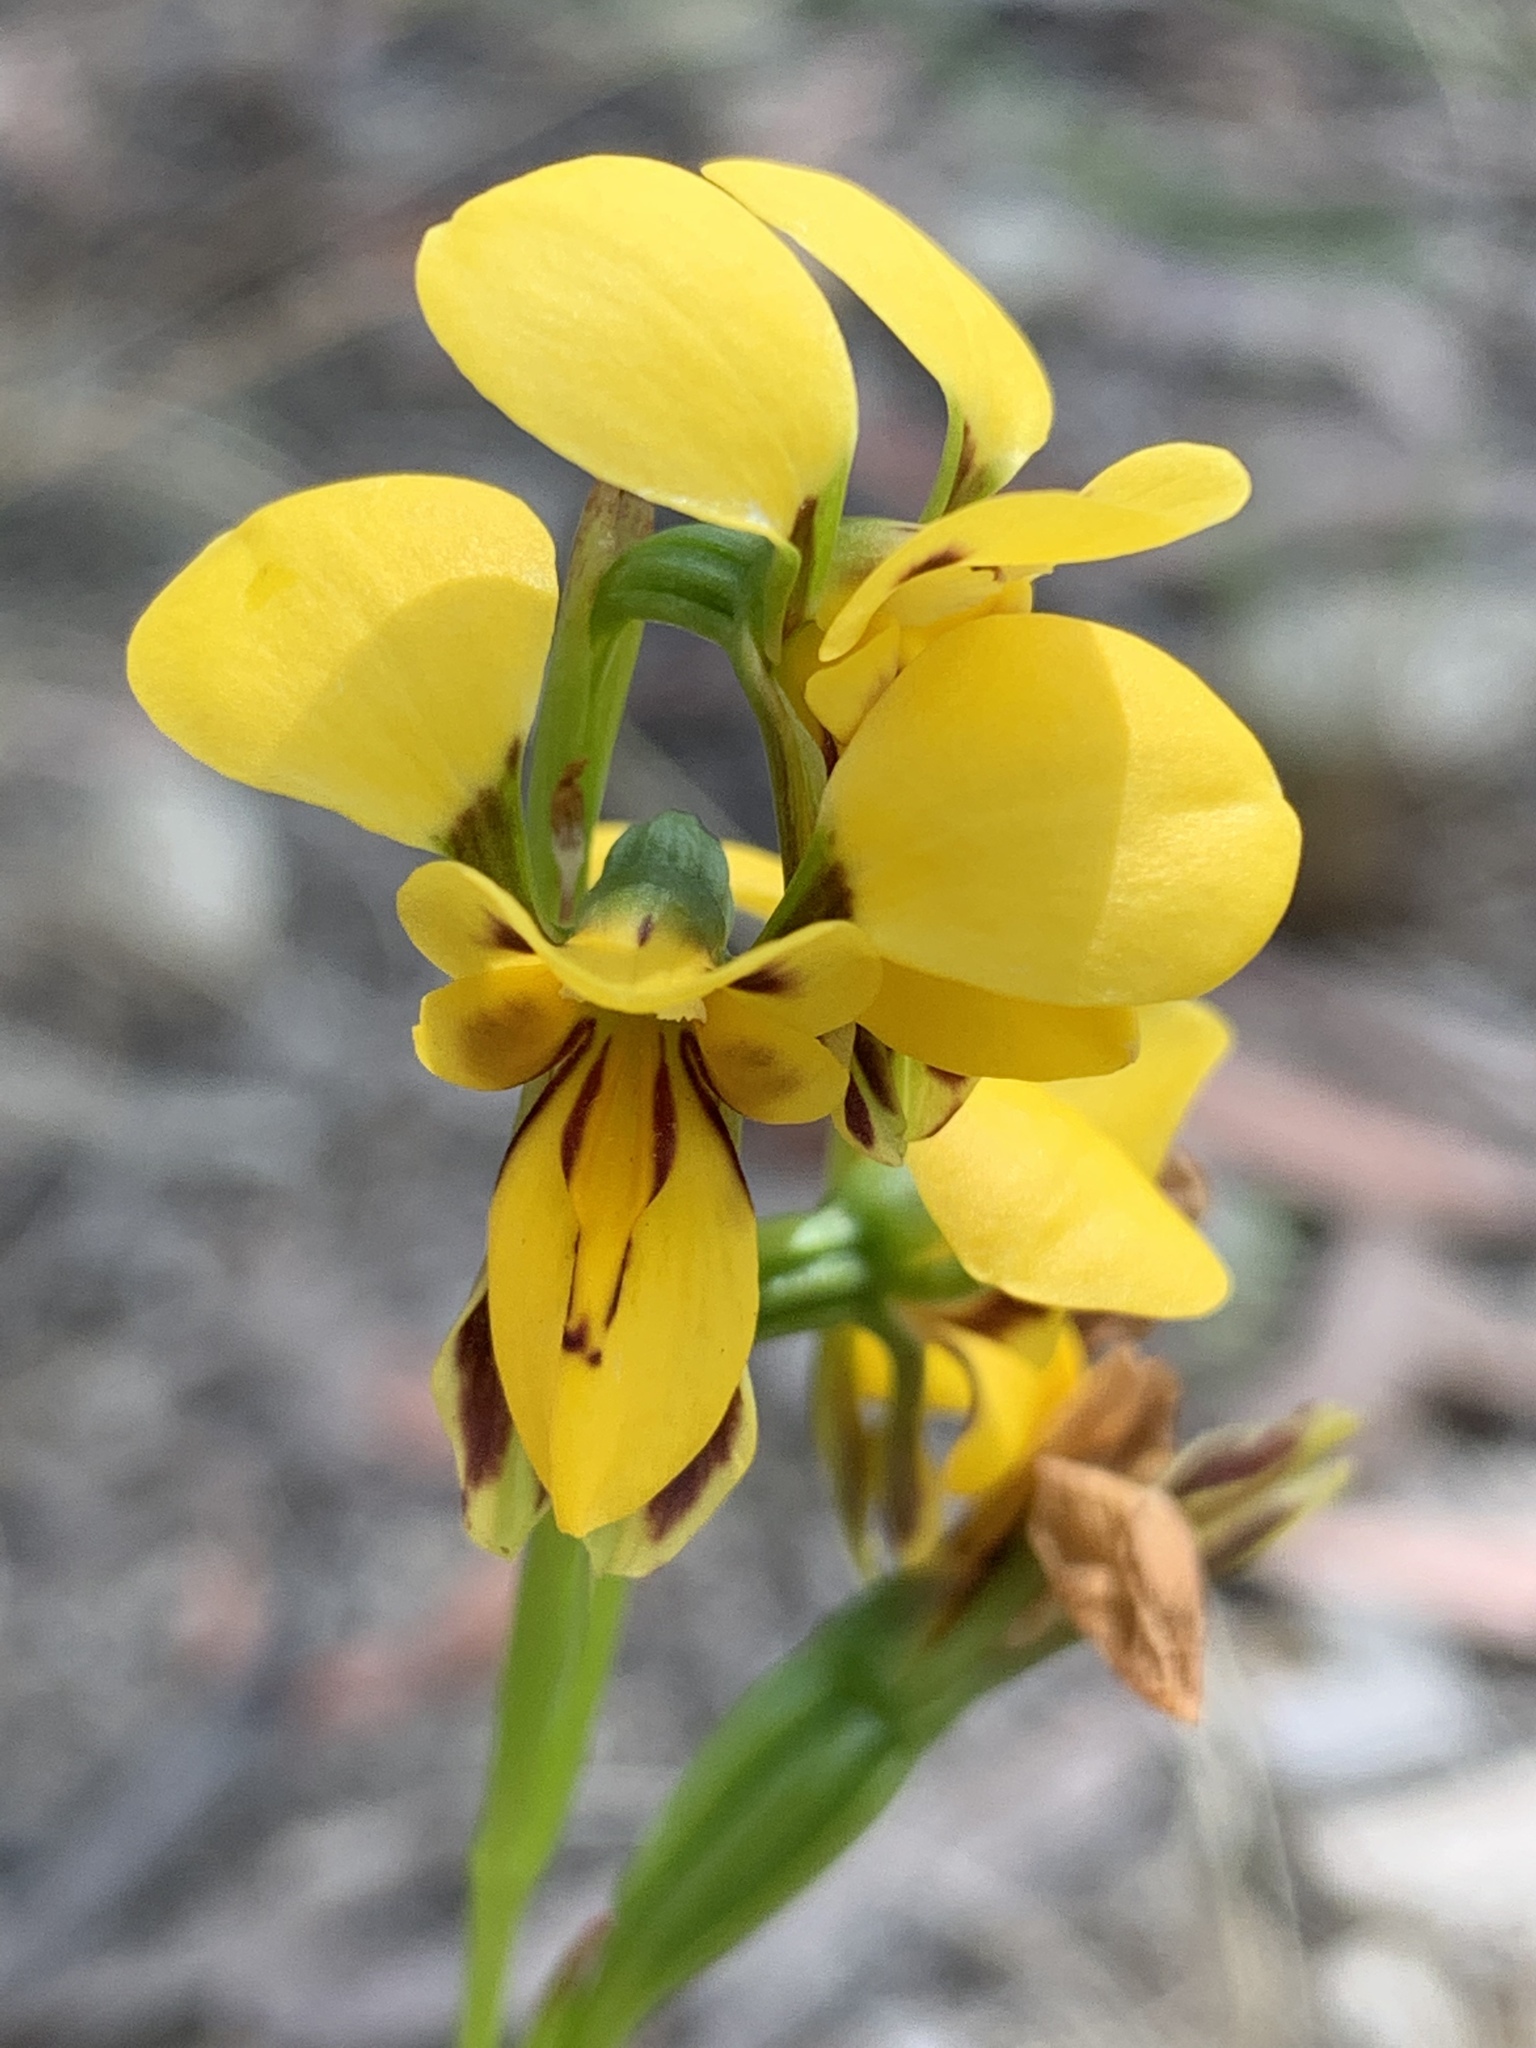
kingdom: Plantae
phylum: Tracheophyta
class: Liliopsida
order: Asparagales
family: Orchidaceae
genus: Diuris
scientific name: Diuris aurea
